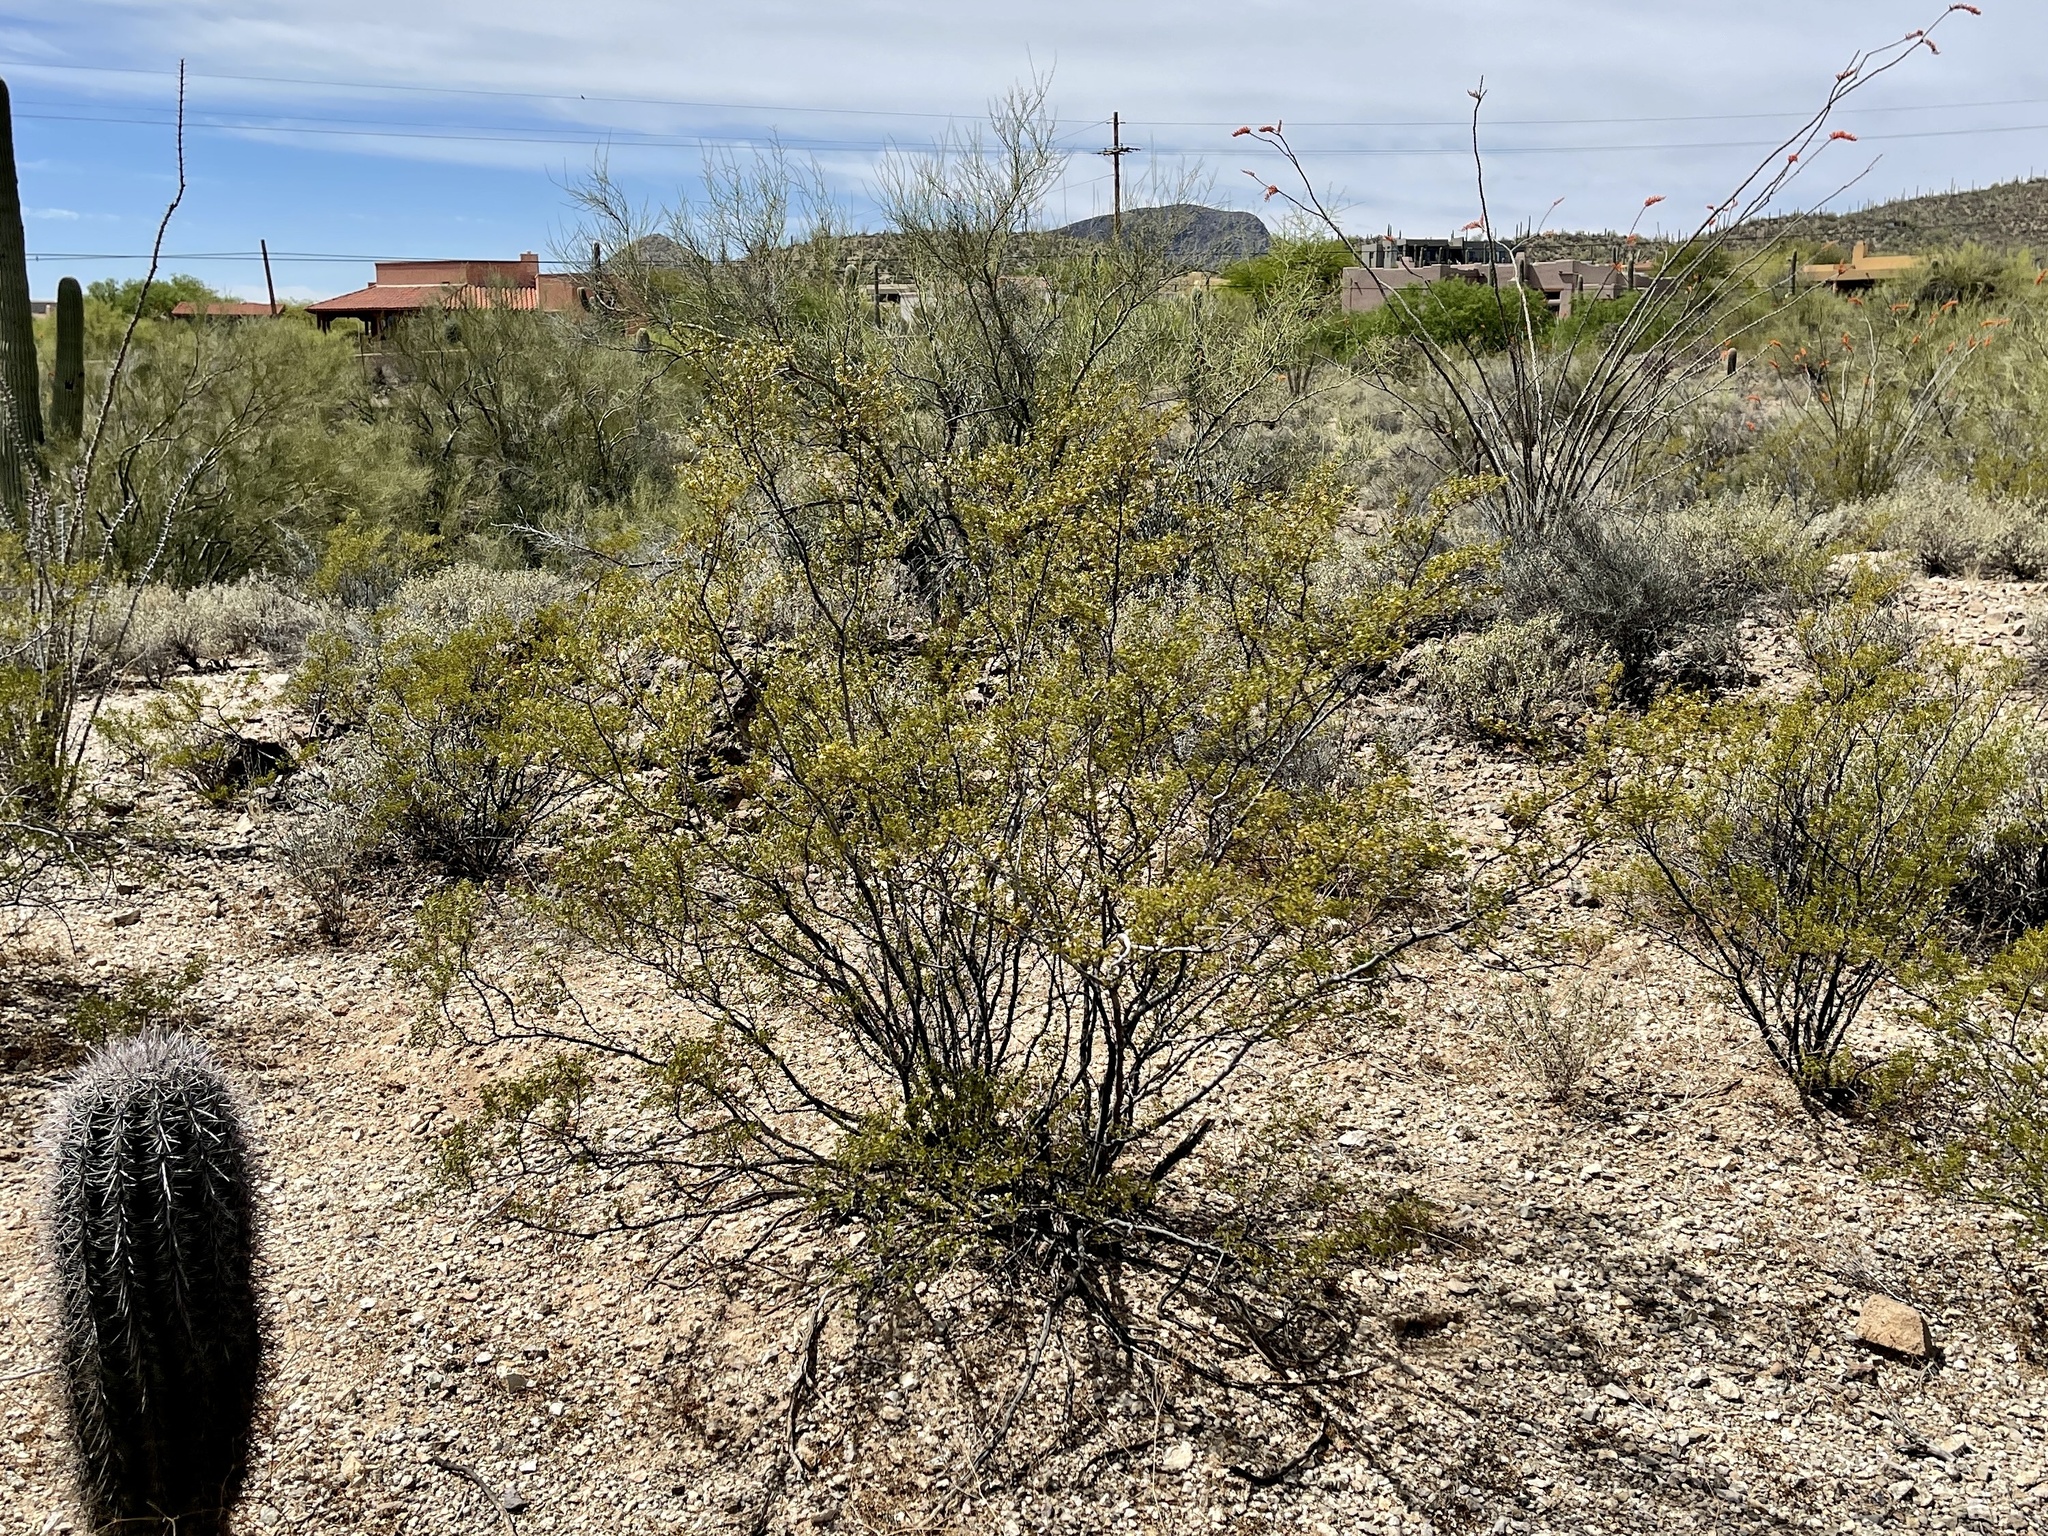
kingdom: Plantae
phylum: Tracheophyta
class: Magnoliopsida
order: Zygophyllales
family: Zygophyllaceae
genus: Larrea
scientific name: Larrea tridentata
